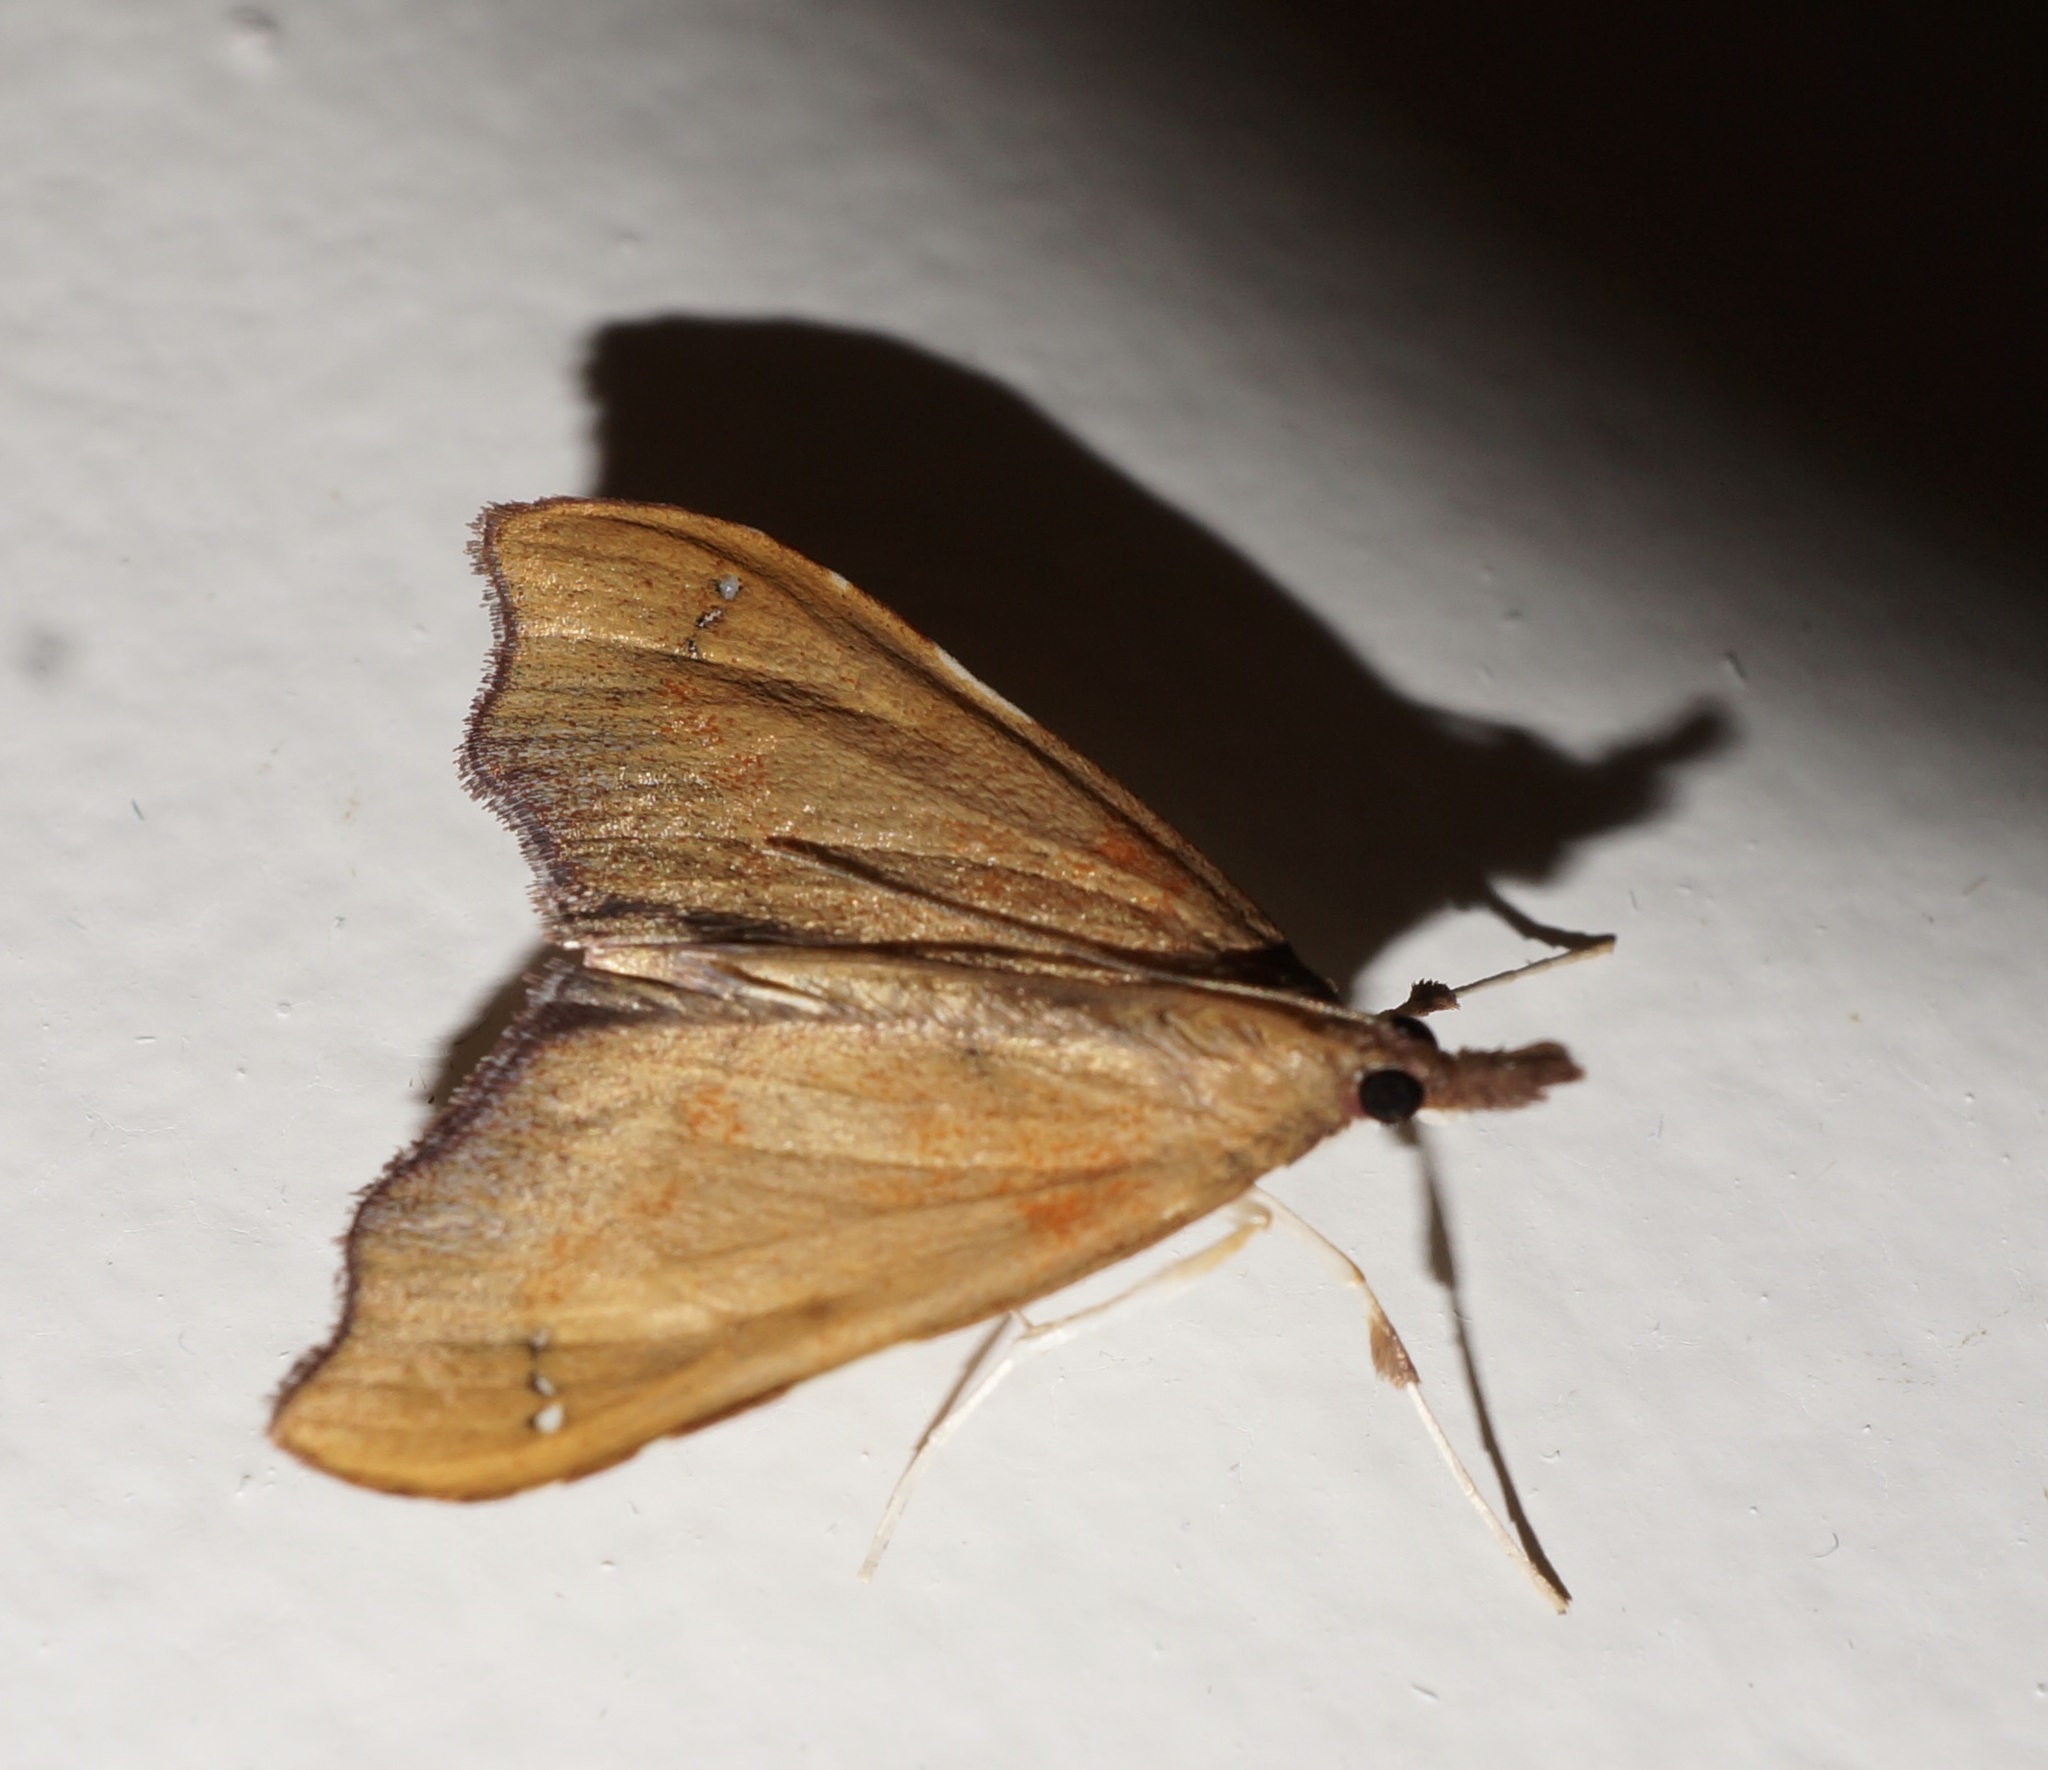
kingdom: Animalia
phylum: Arthropoda
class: Insecta
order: Lepidoptera
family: Crambidae
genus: Deana
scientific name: Deana hybreasalis
